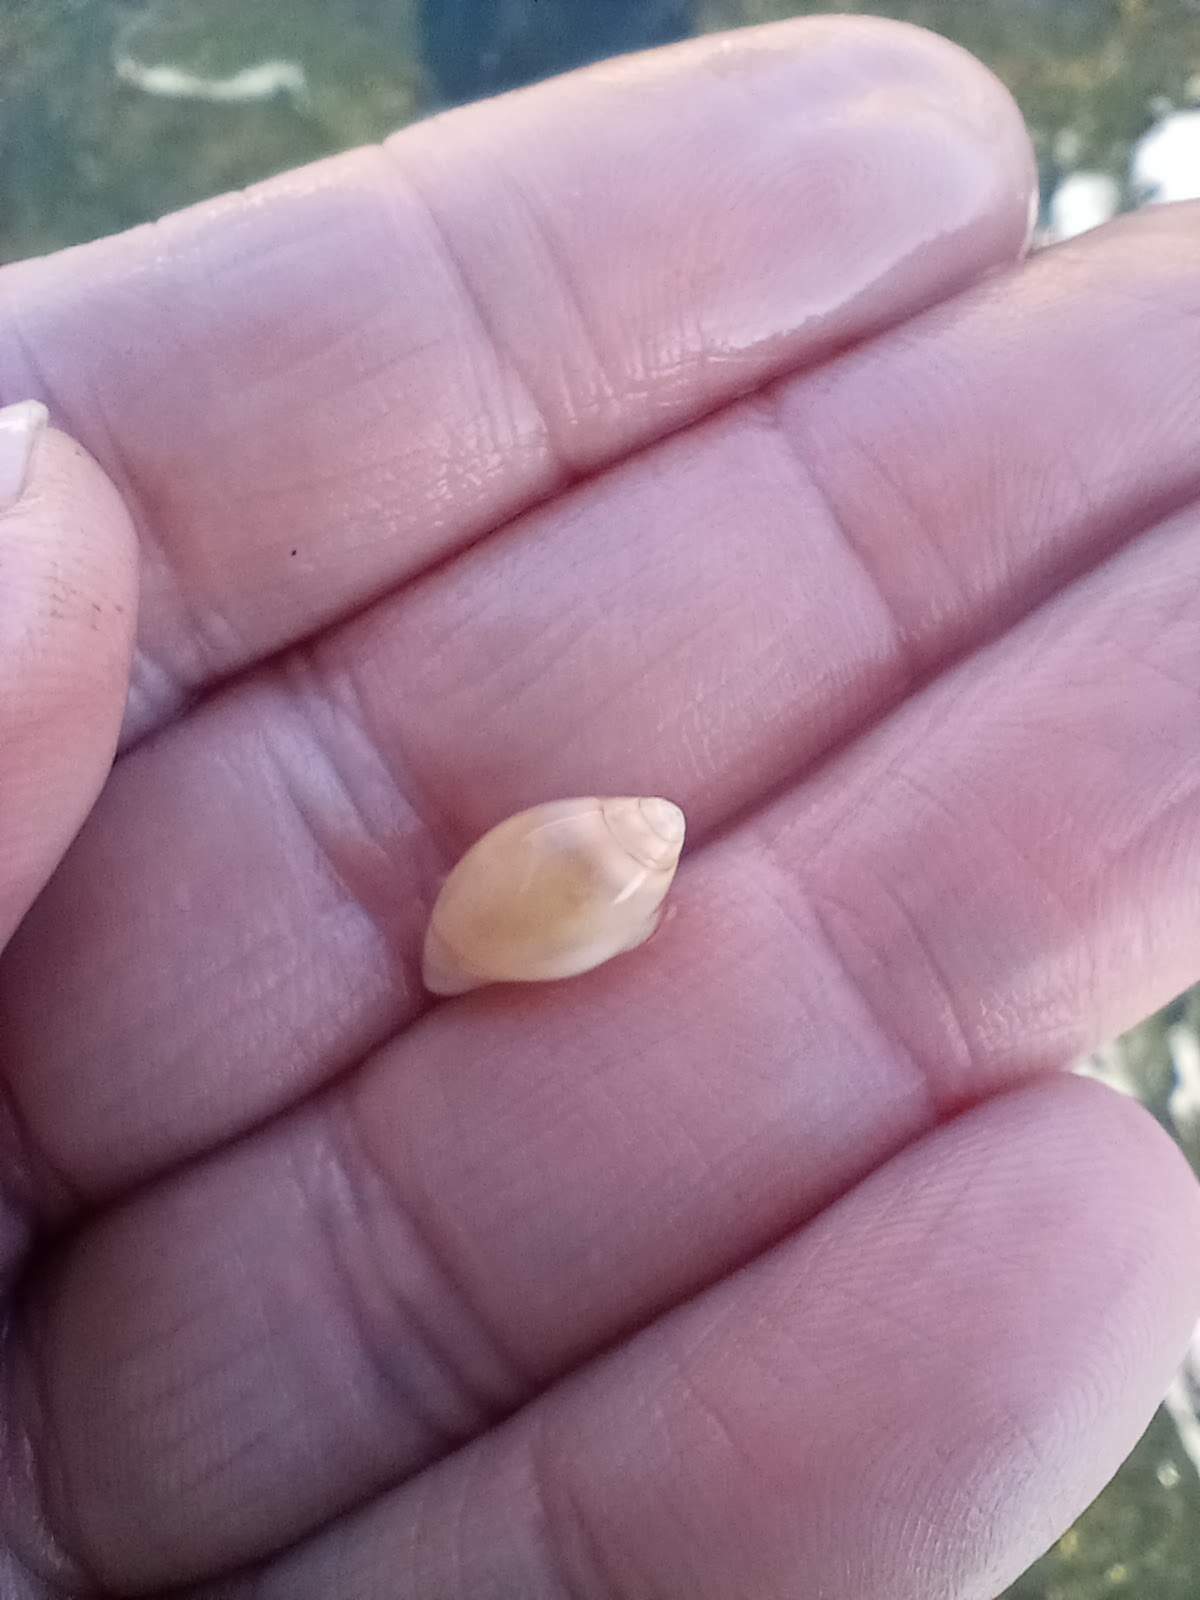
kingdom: Animalia
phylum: Mollusca
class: Gastropoda
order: Neogastropoda
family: Olividae
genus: Callianax
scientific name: Callianax biplicata
